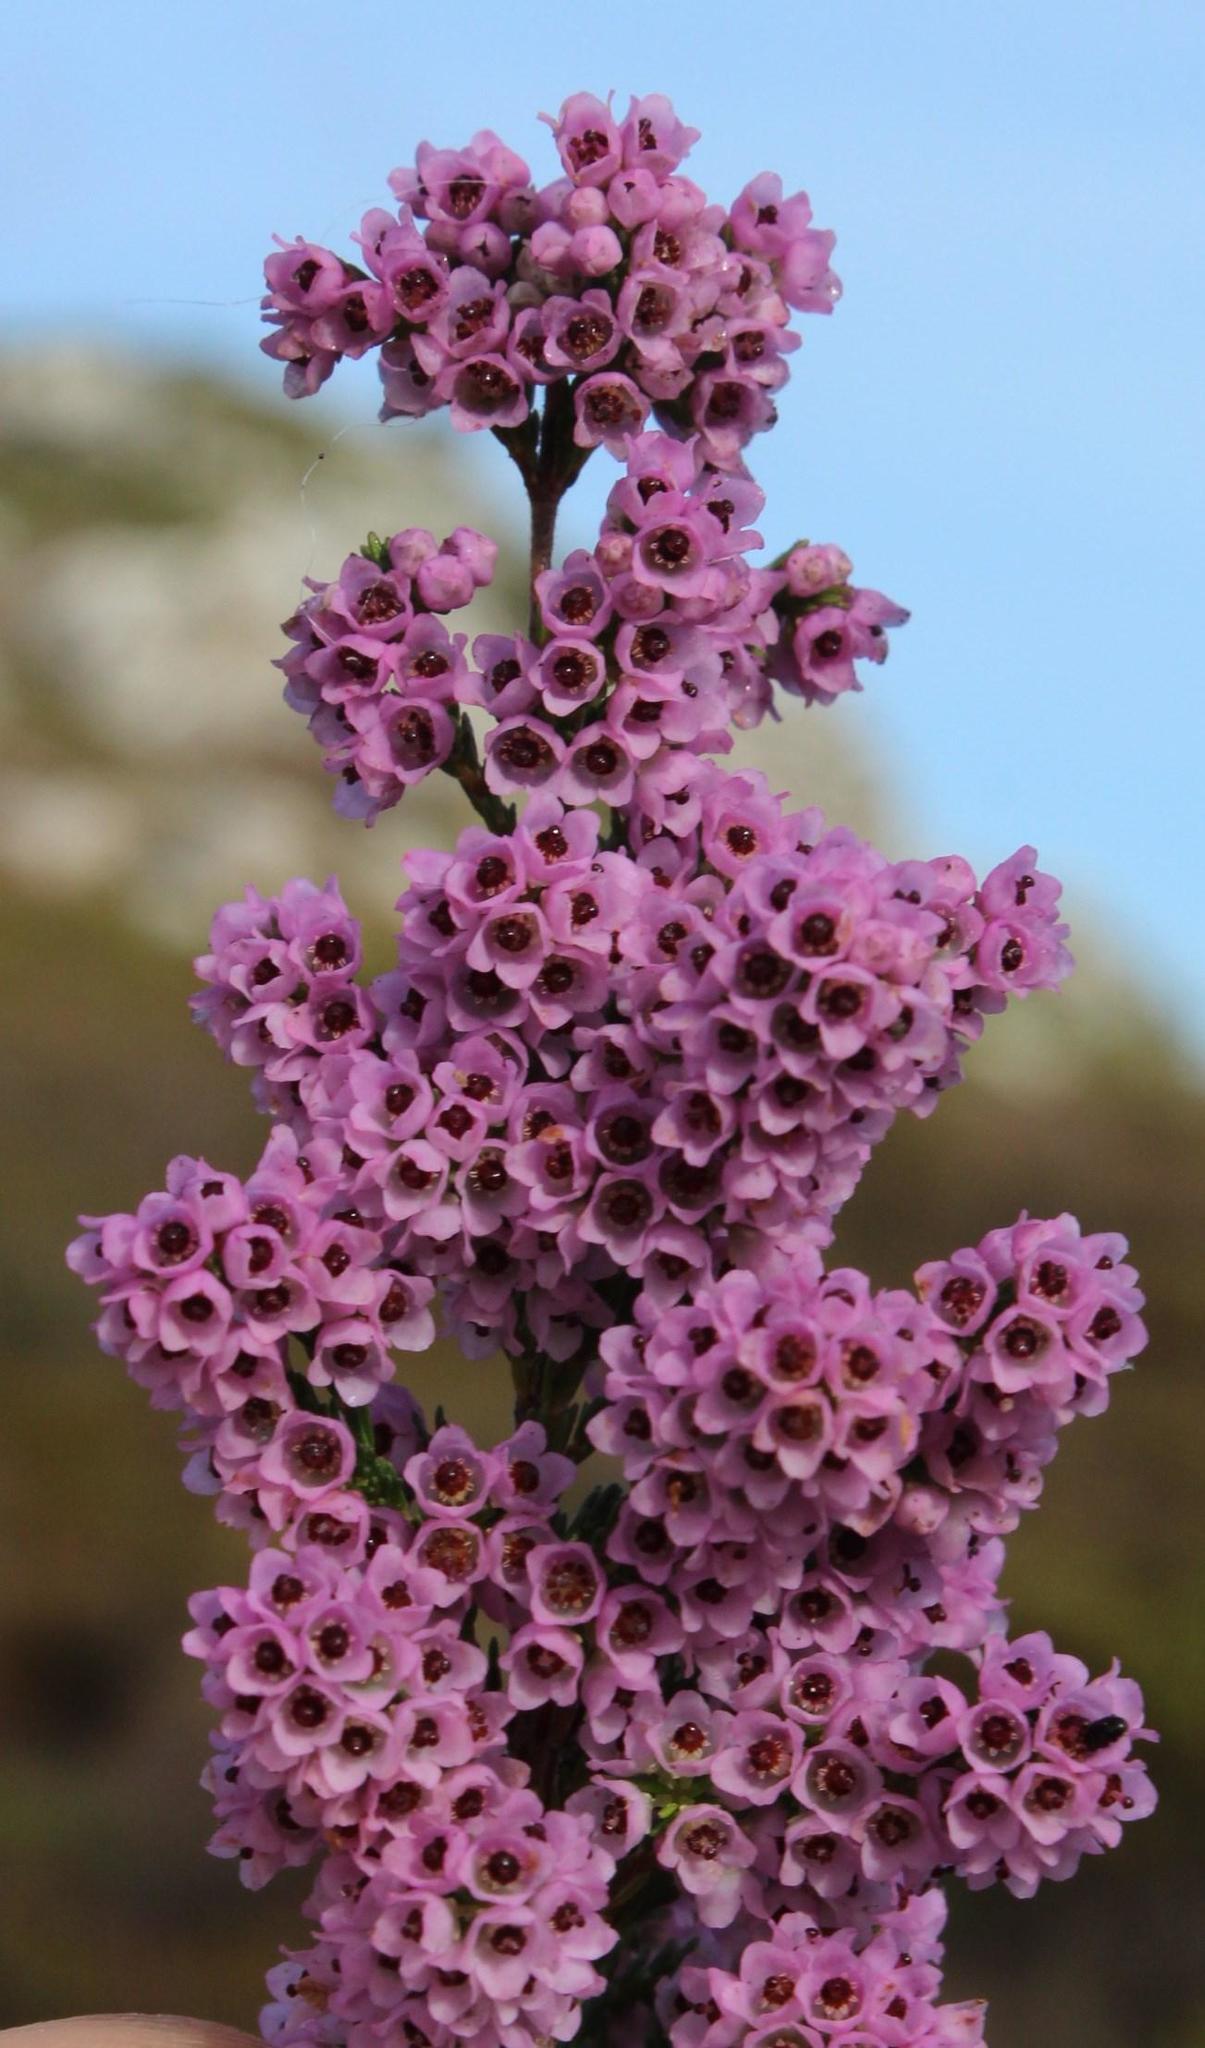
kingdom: Plantae
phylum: Tracheophyta
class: Magnoliopsida
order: Ericales
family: Ericaceae
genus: Erica
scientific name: Erica mauritanica
